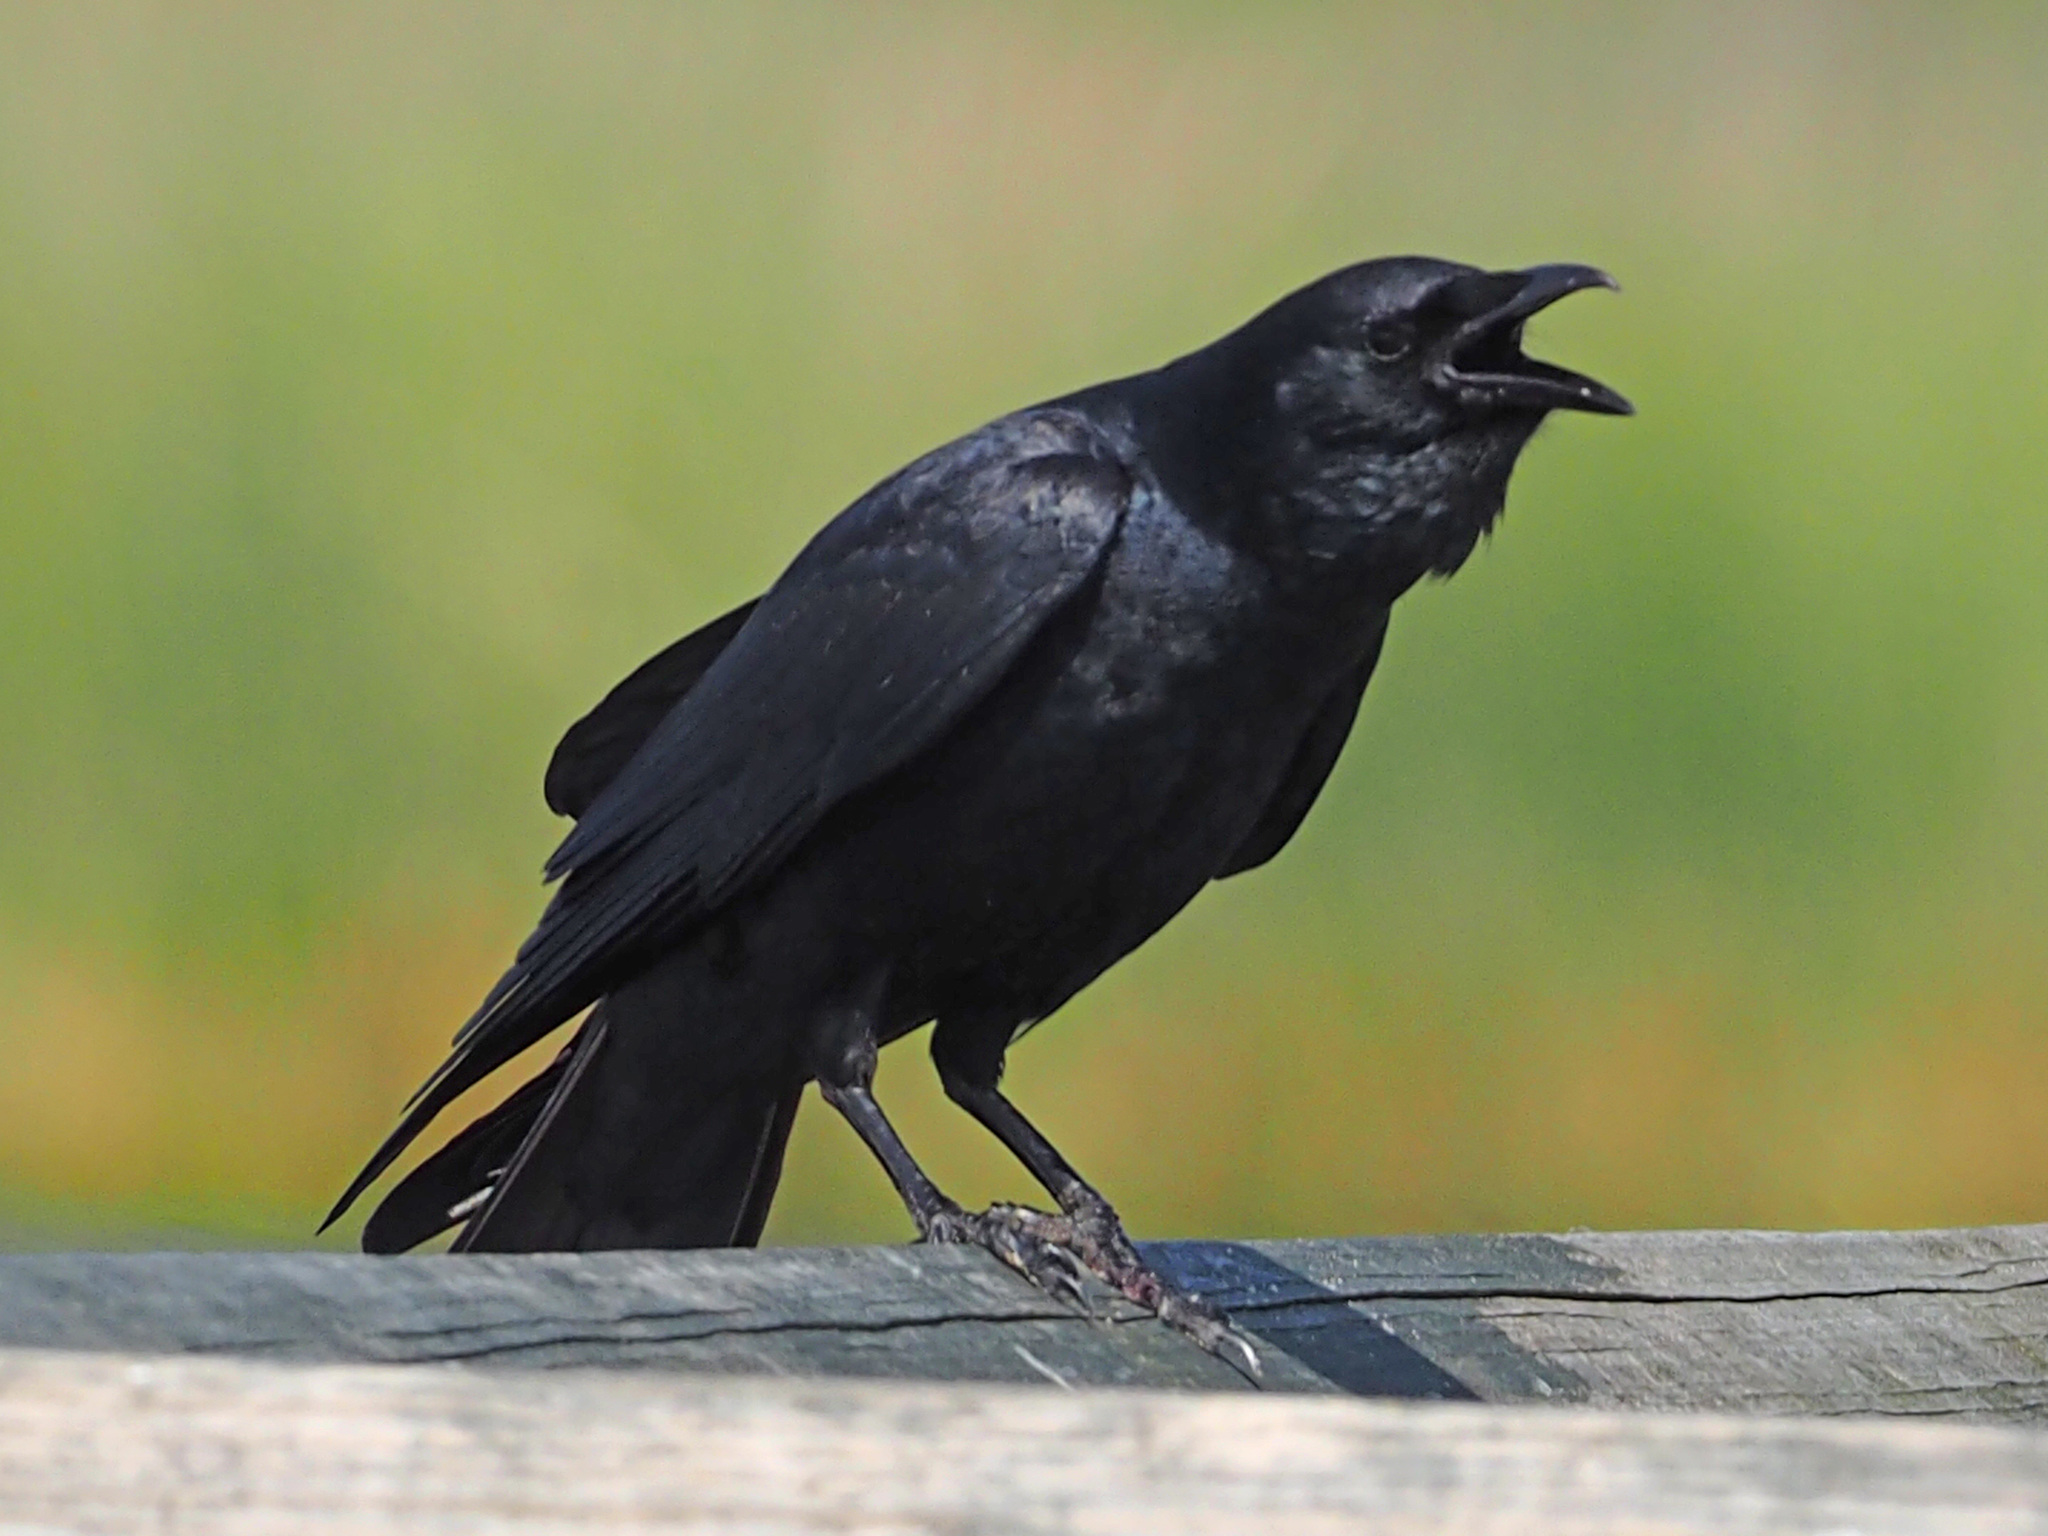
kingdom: Animalia
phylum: Chordata
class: Aves
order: Passeriformes
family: Corvidae
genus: Corvus
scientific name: Corvus ossifragus
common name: Fish crow
